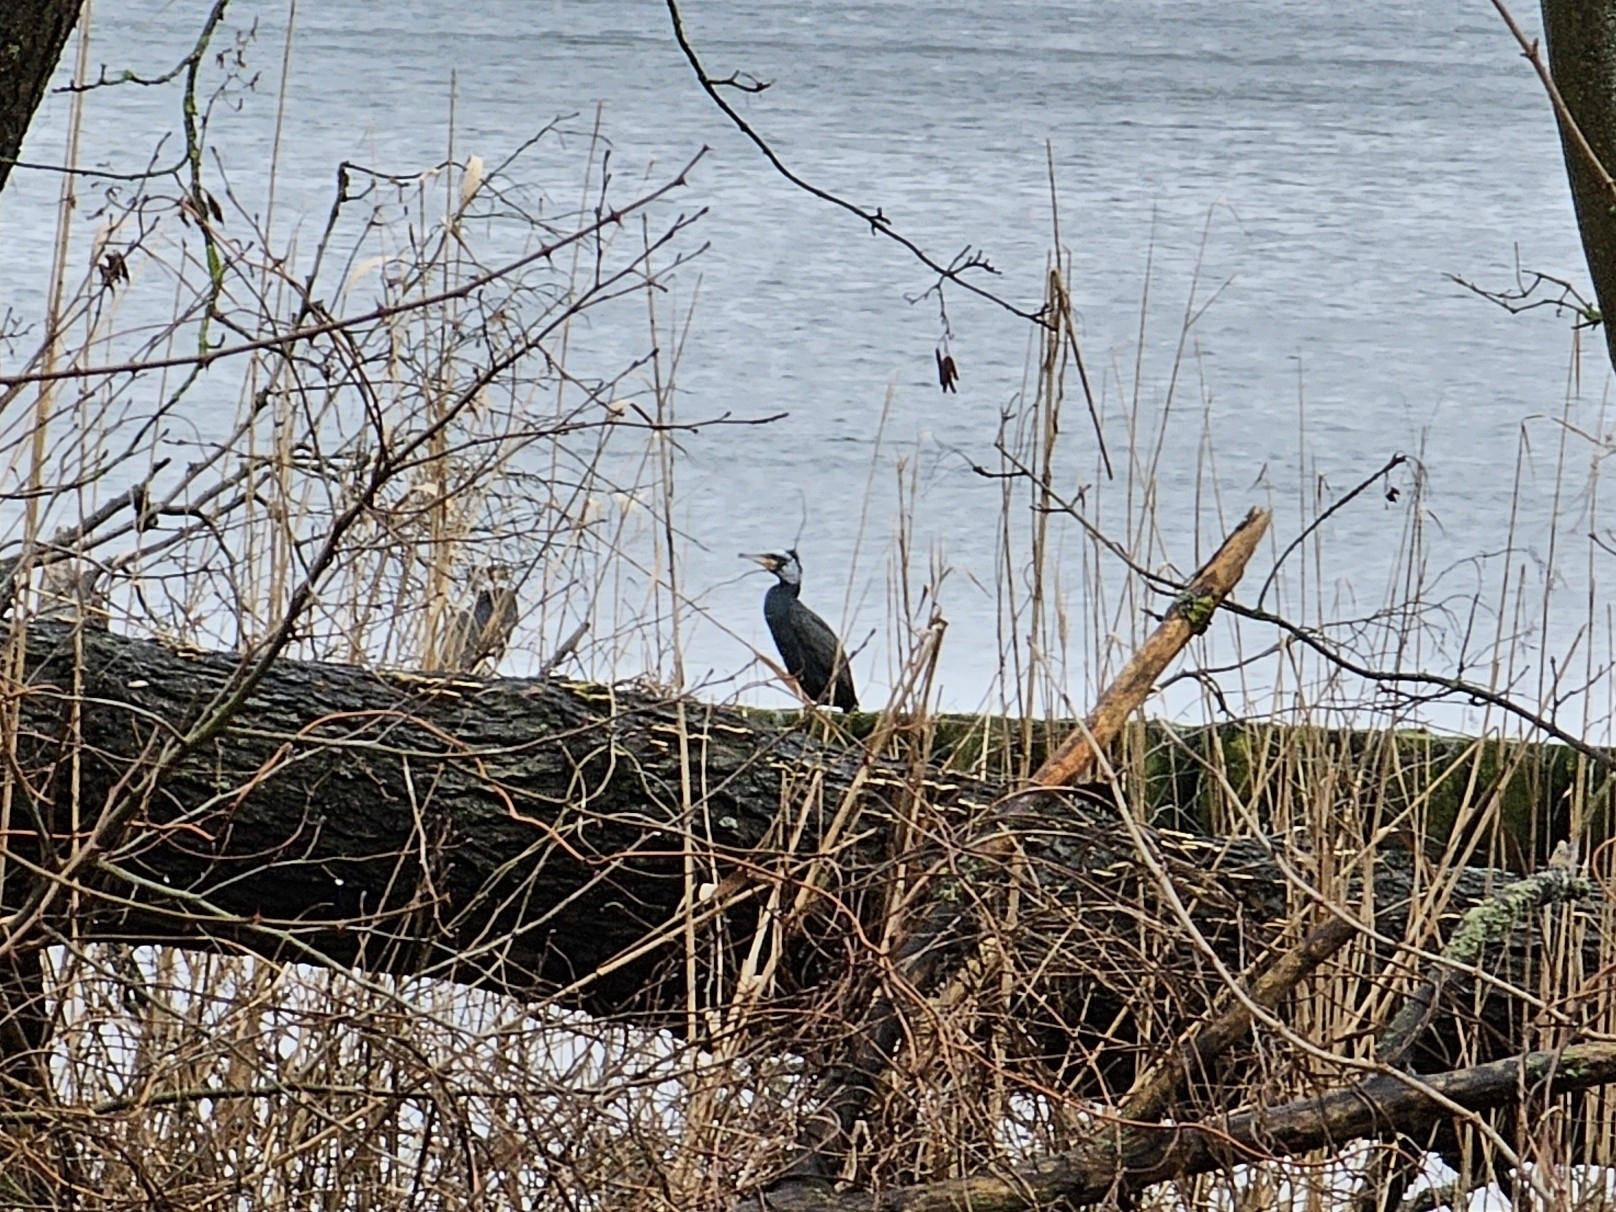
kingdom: Animalia
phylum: Chordata
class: Aves
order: Suliformes
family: Phalacrocoracidae
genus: Phalacrocorax
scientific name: Phalacrocorax carbo
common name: Great cormorant
